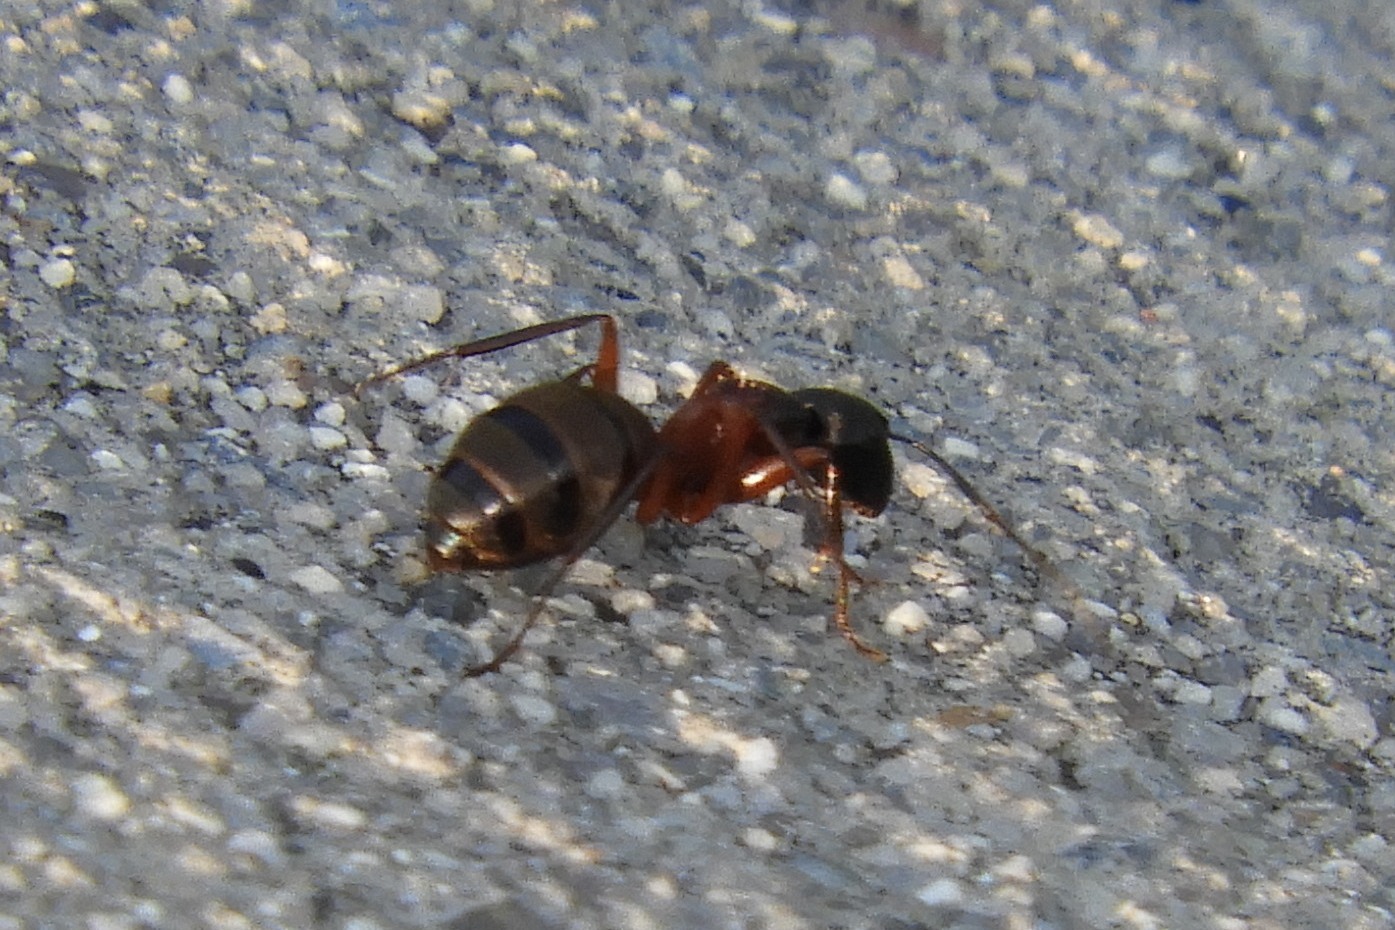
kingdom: Animalia
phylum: Arthropoda
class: Insecta
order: Hymenoptera
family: Formicidae
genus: Camponotus
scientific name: Camponotus chromaiodes
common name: Red carpenter ant
